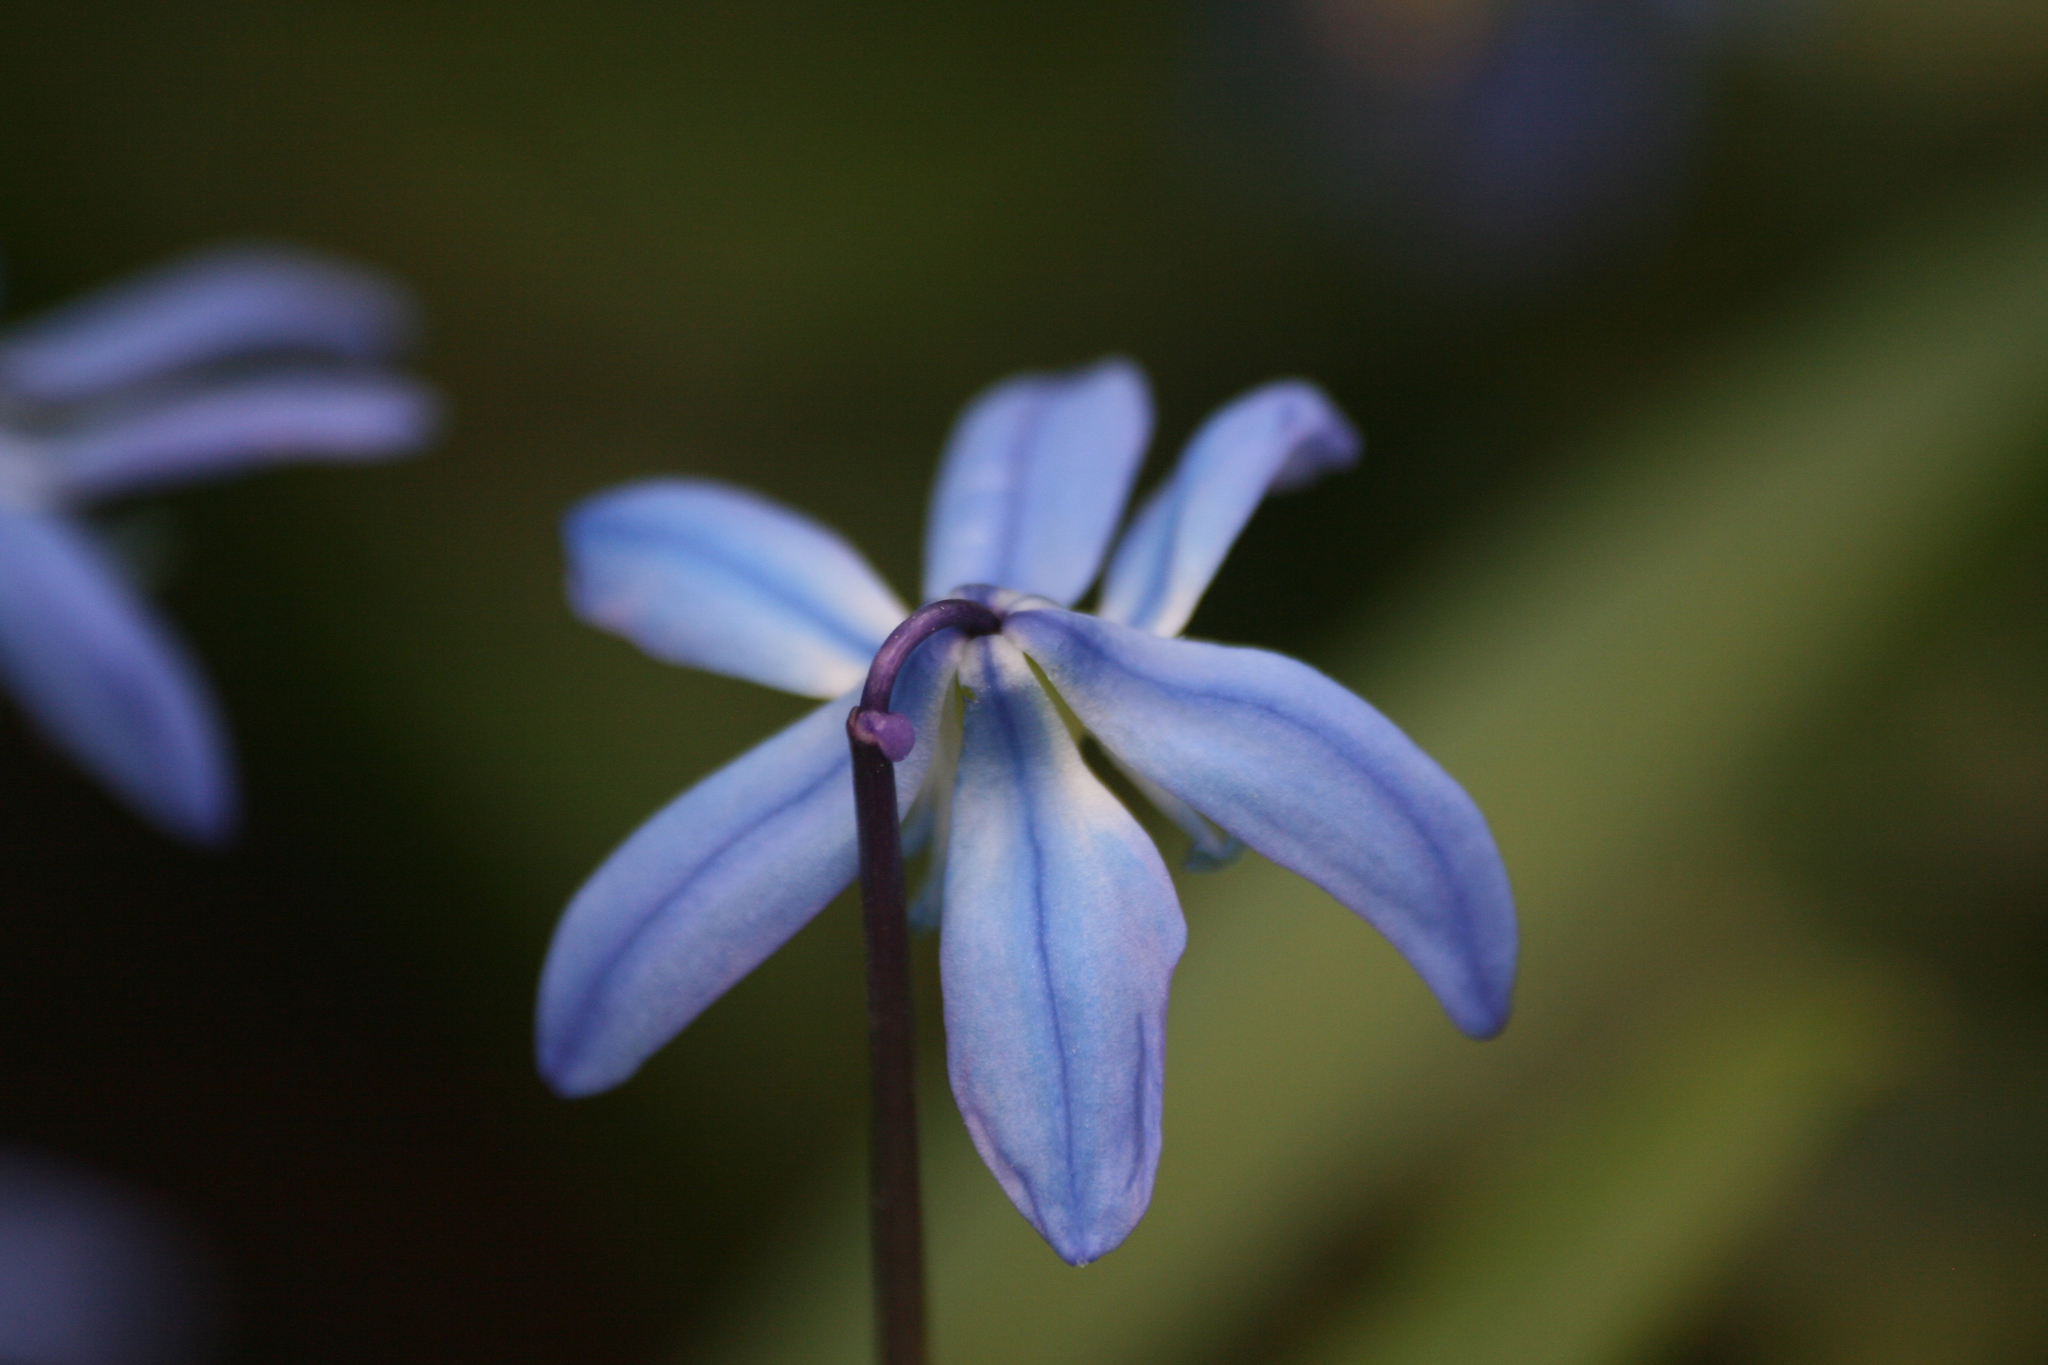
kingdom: Plantae
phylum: Tracheophyta
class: Liliopsida
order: Asparagales
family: Asparagaceae
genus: Scilla
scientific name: Scilla siberica
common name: Siberian squill
